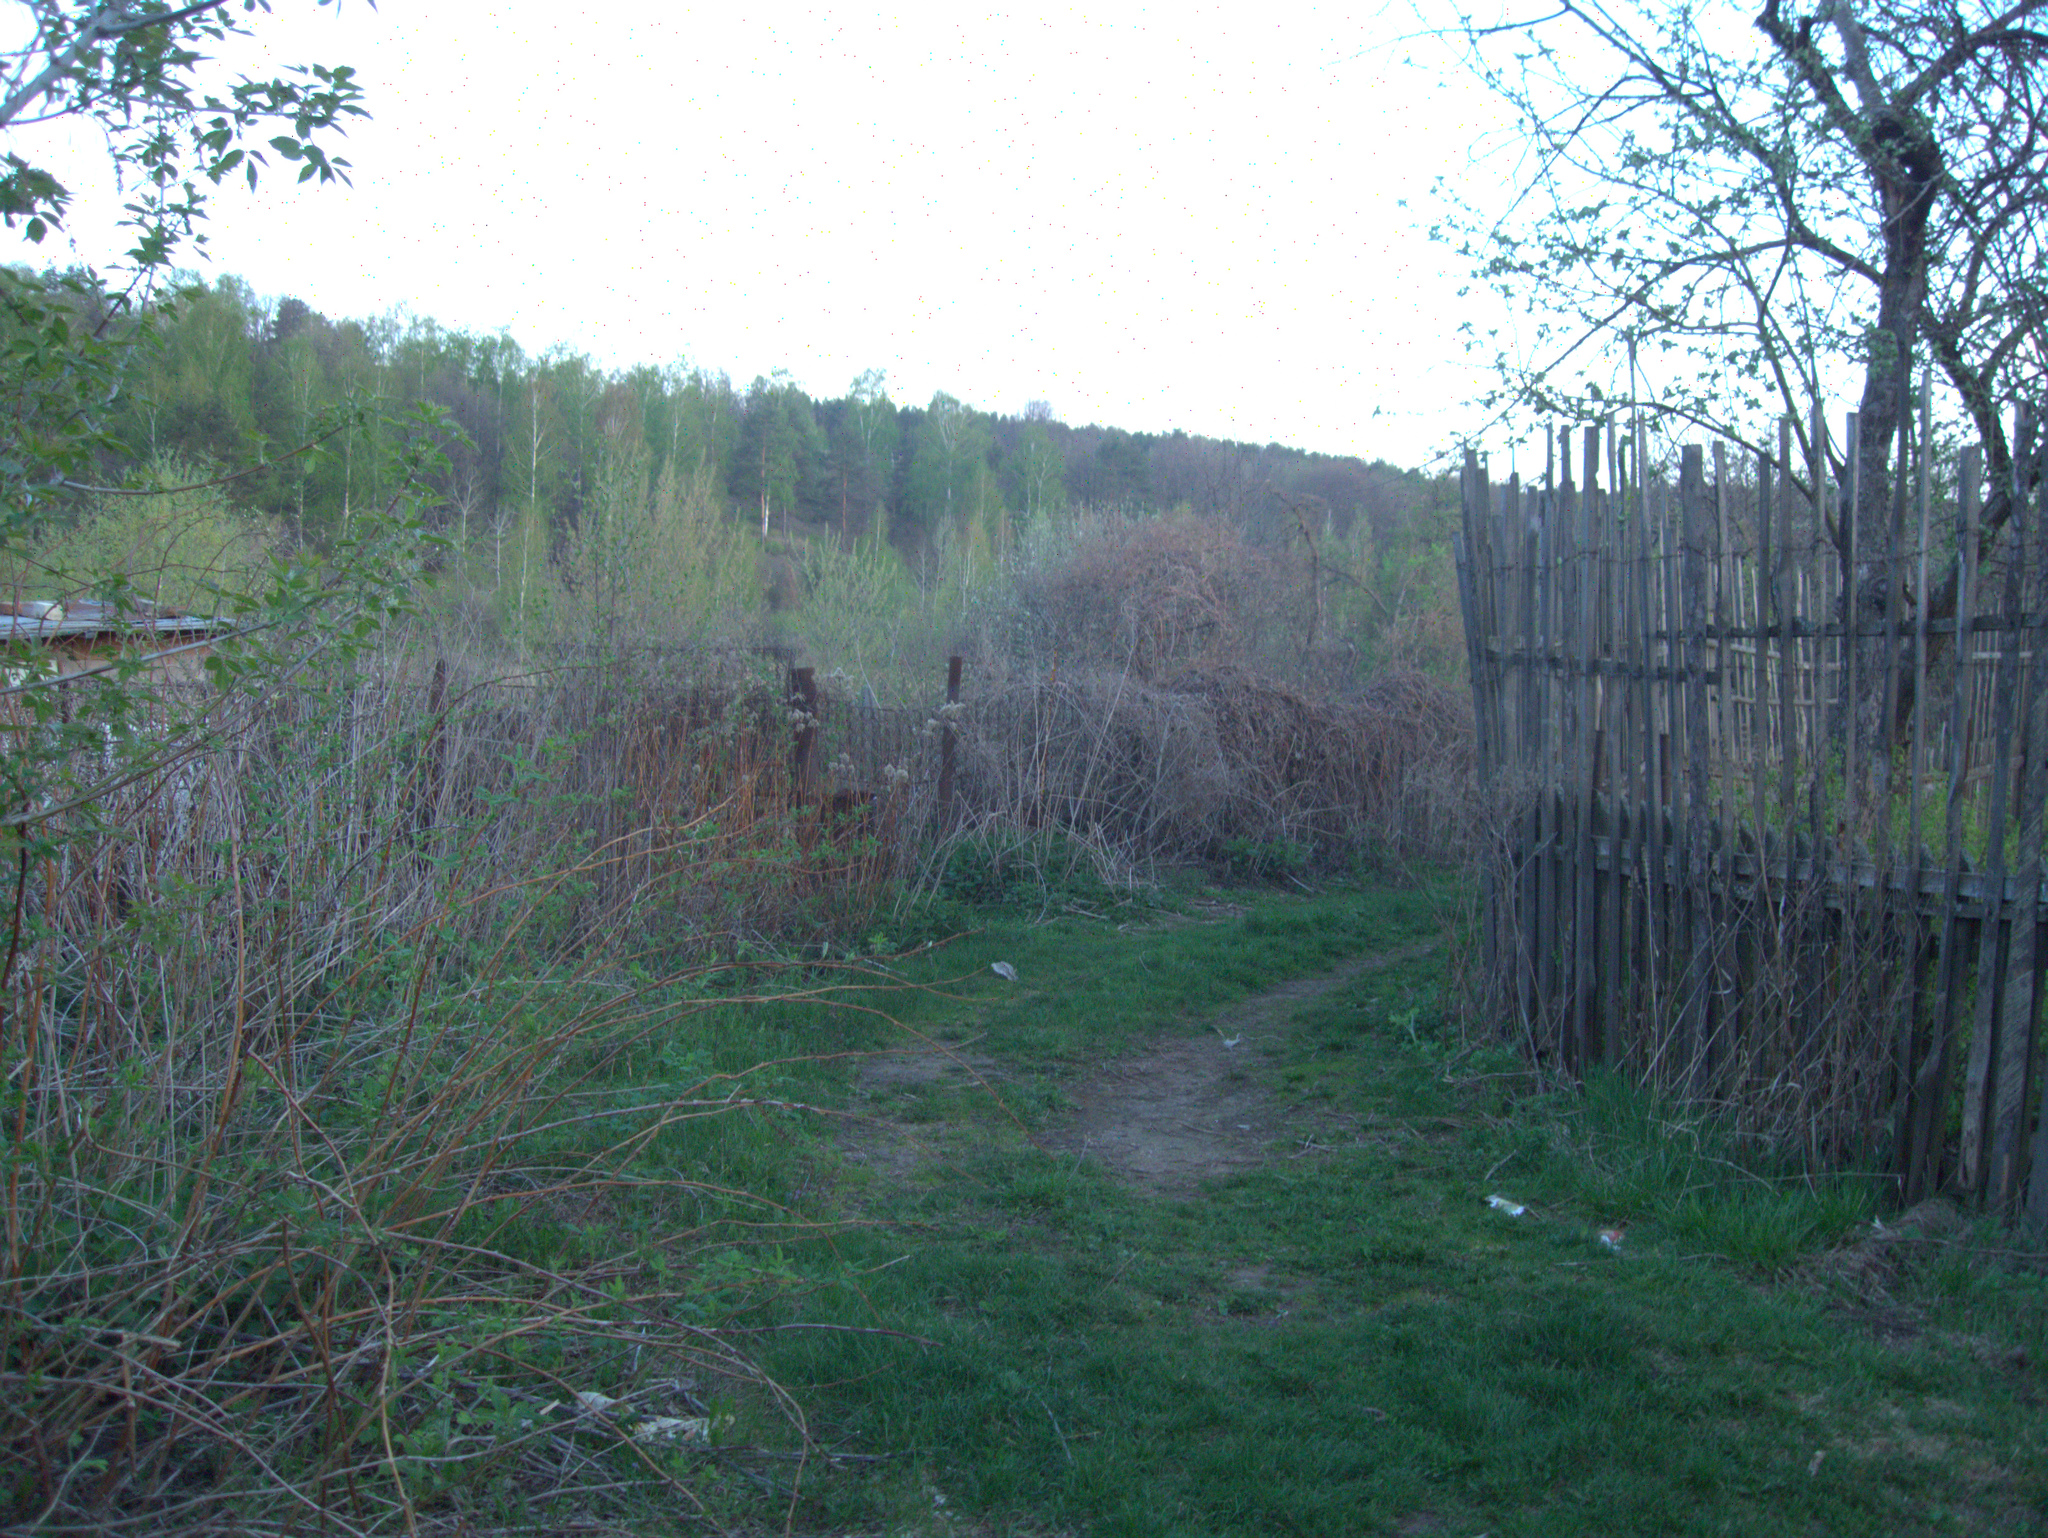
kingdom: Plantae
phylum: Tracheophyta
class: Magnoliopsida
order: Sapindales
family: Sapindaceae
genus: Acer
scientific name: Acer negundo
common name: Ashleaf maple
